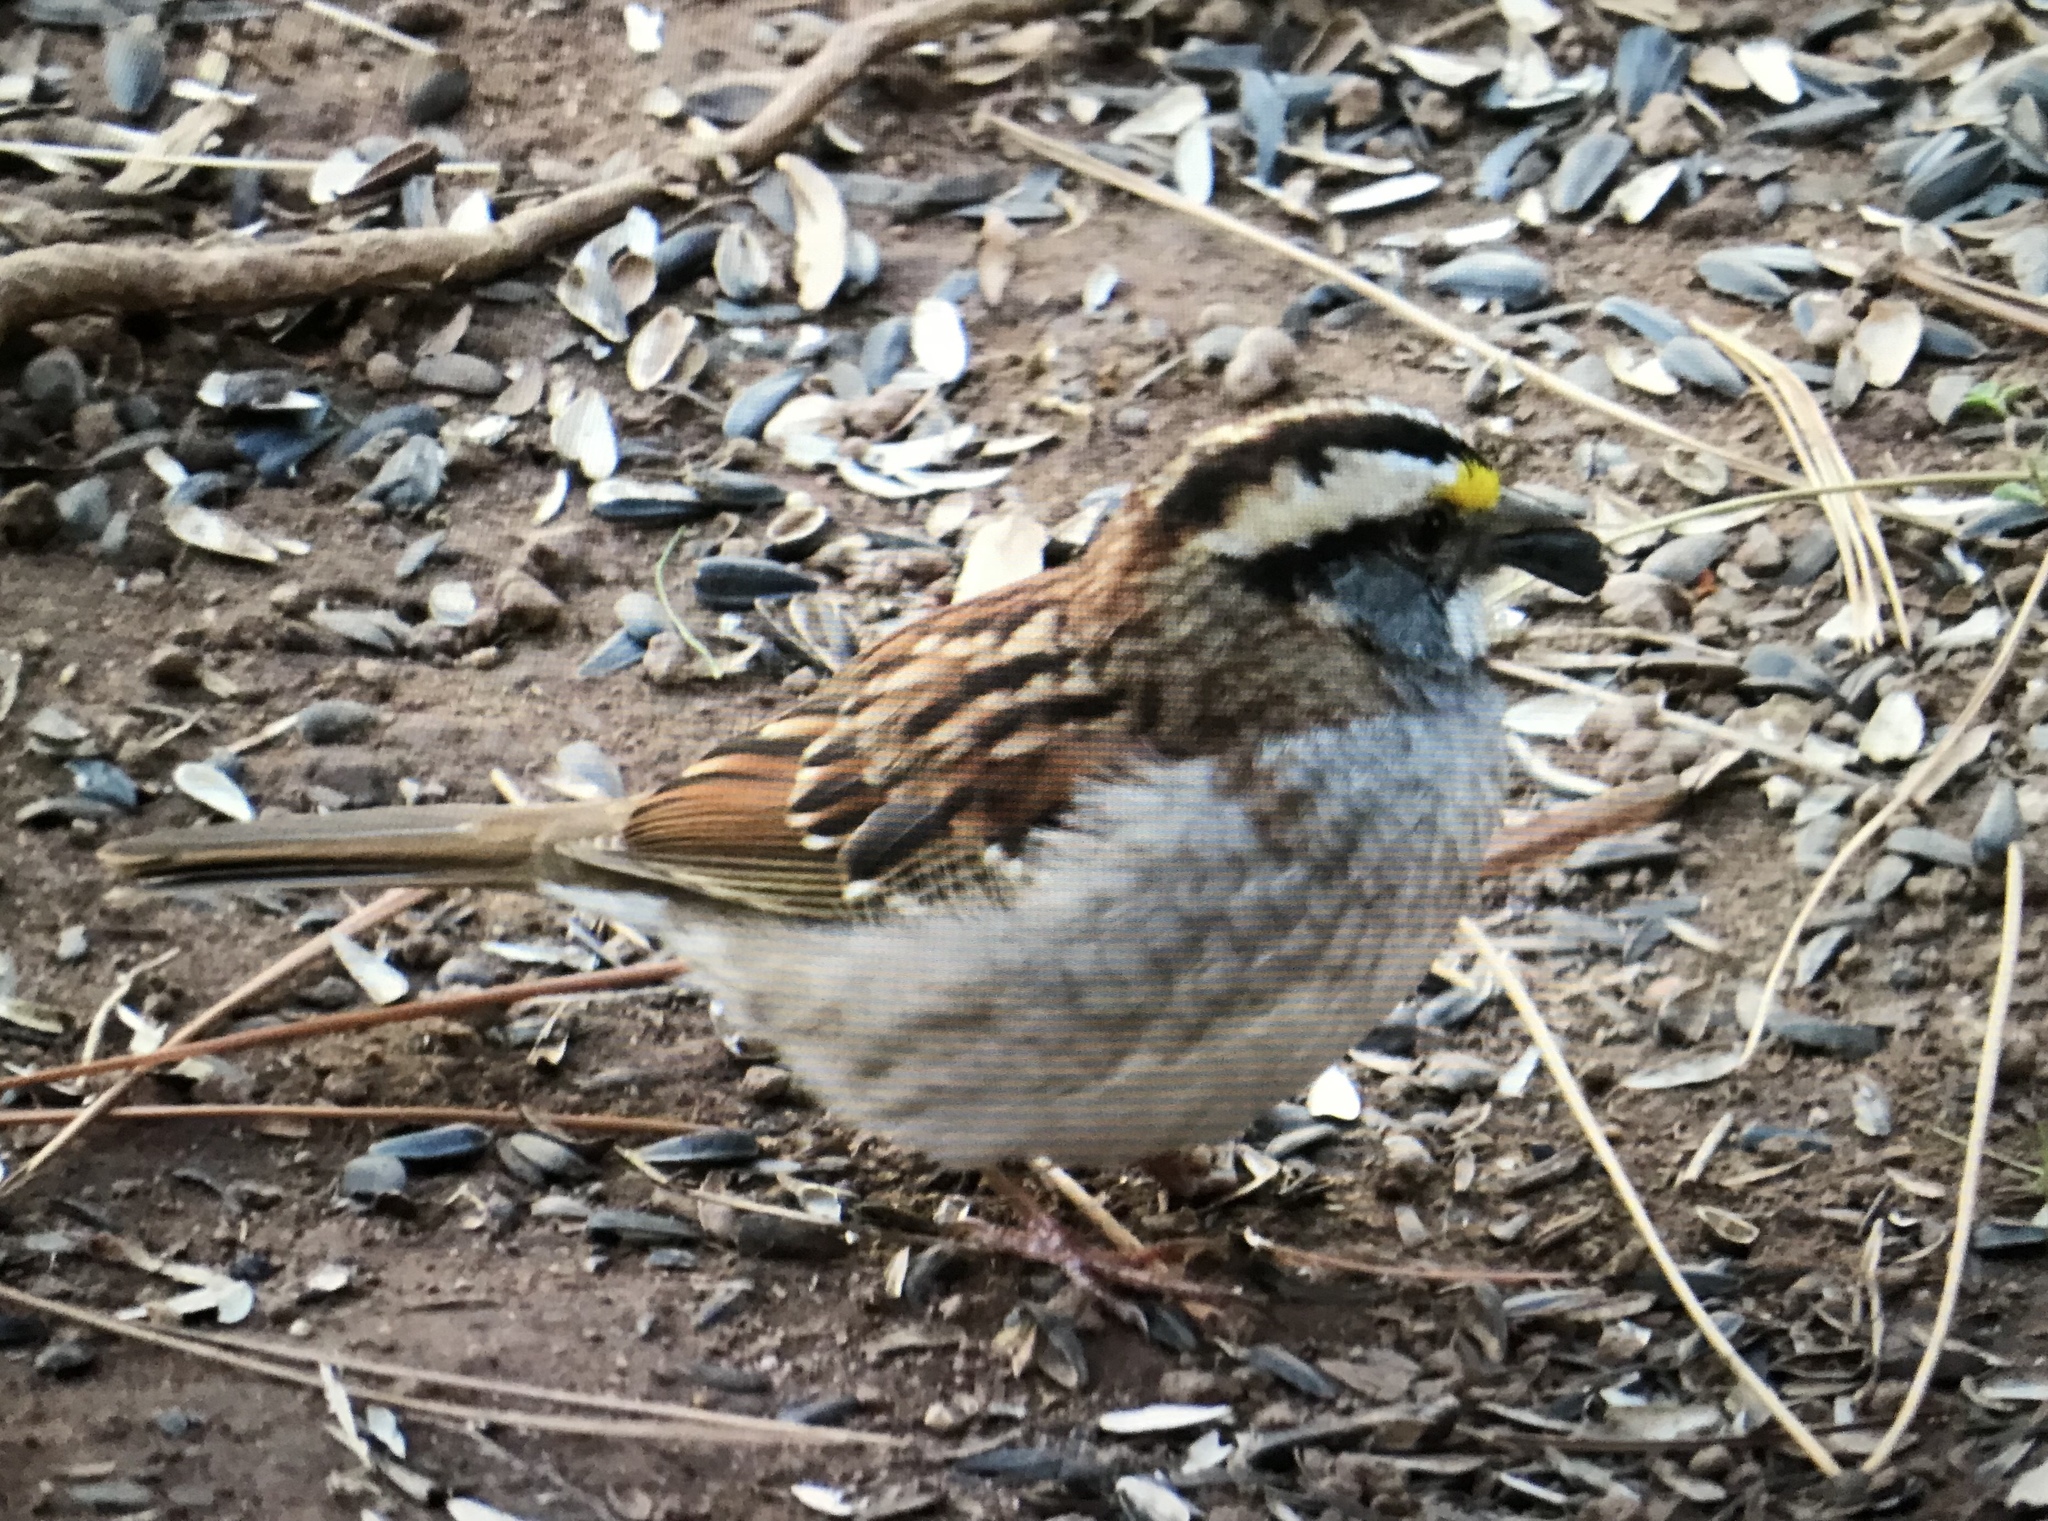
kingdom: Animalia
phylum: Chordata
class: Aves
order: Passeriformes
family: Passerellidae
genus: Zonotrichia
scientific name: Zonotrichia albicollis
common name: White-throated sparrow
